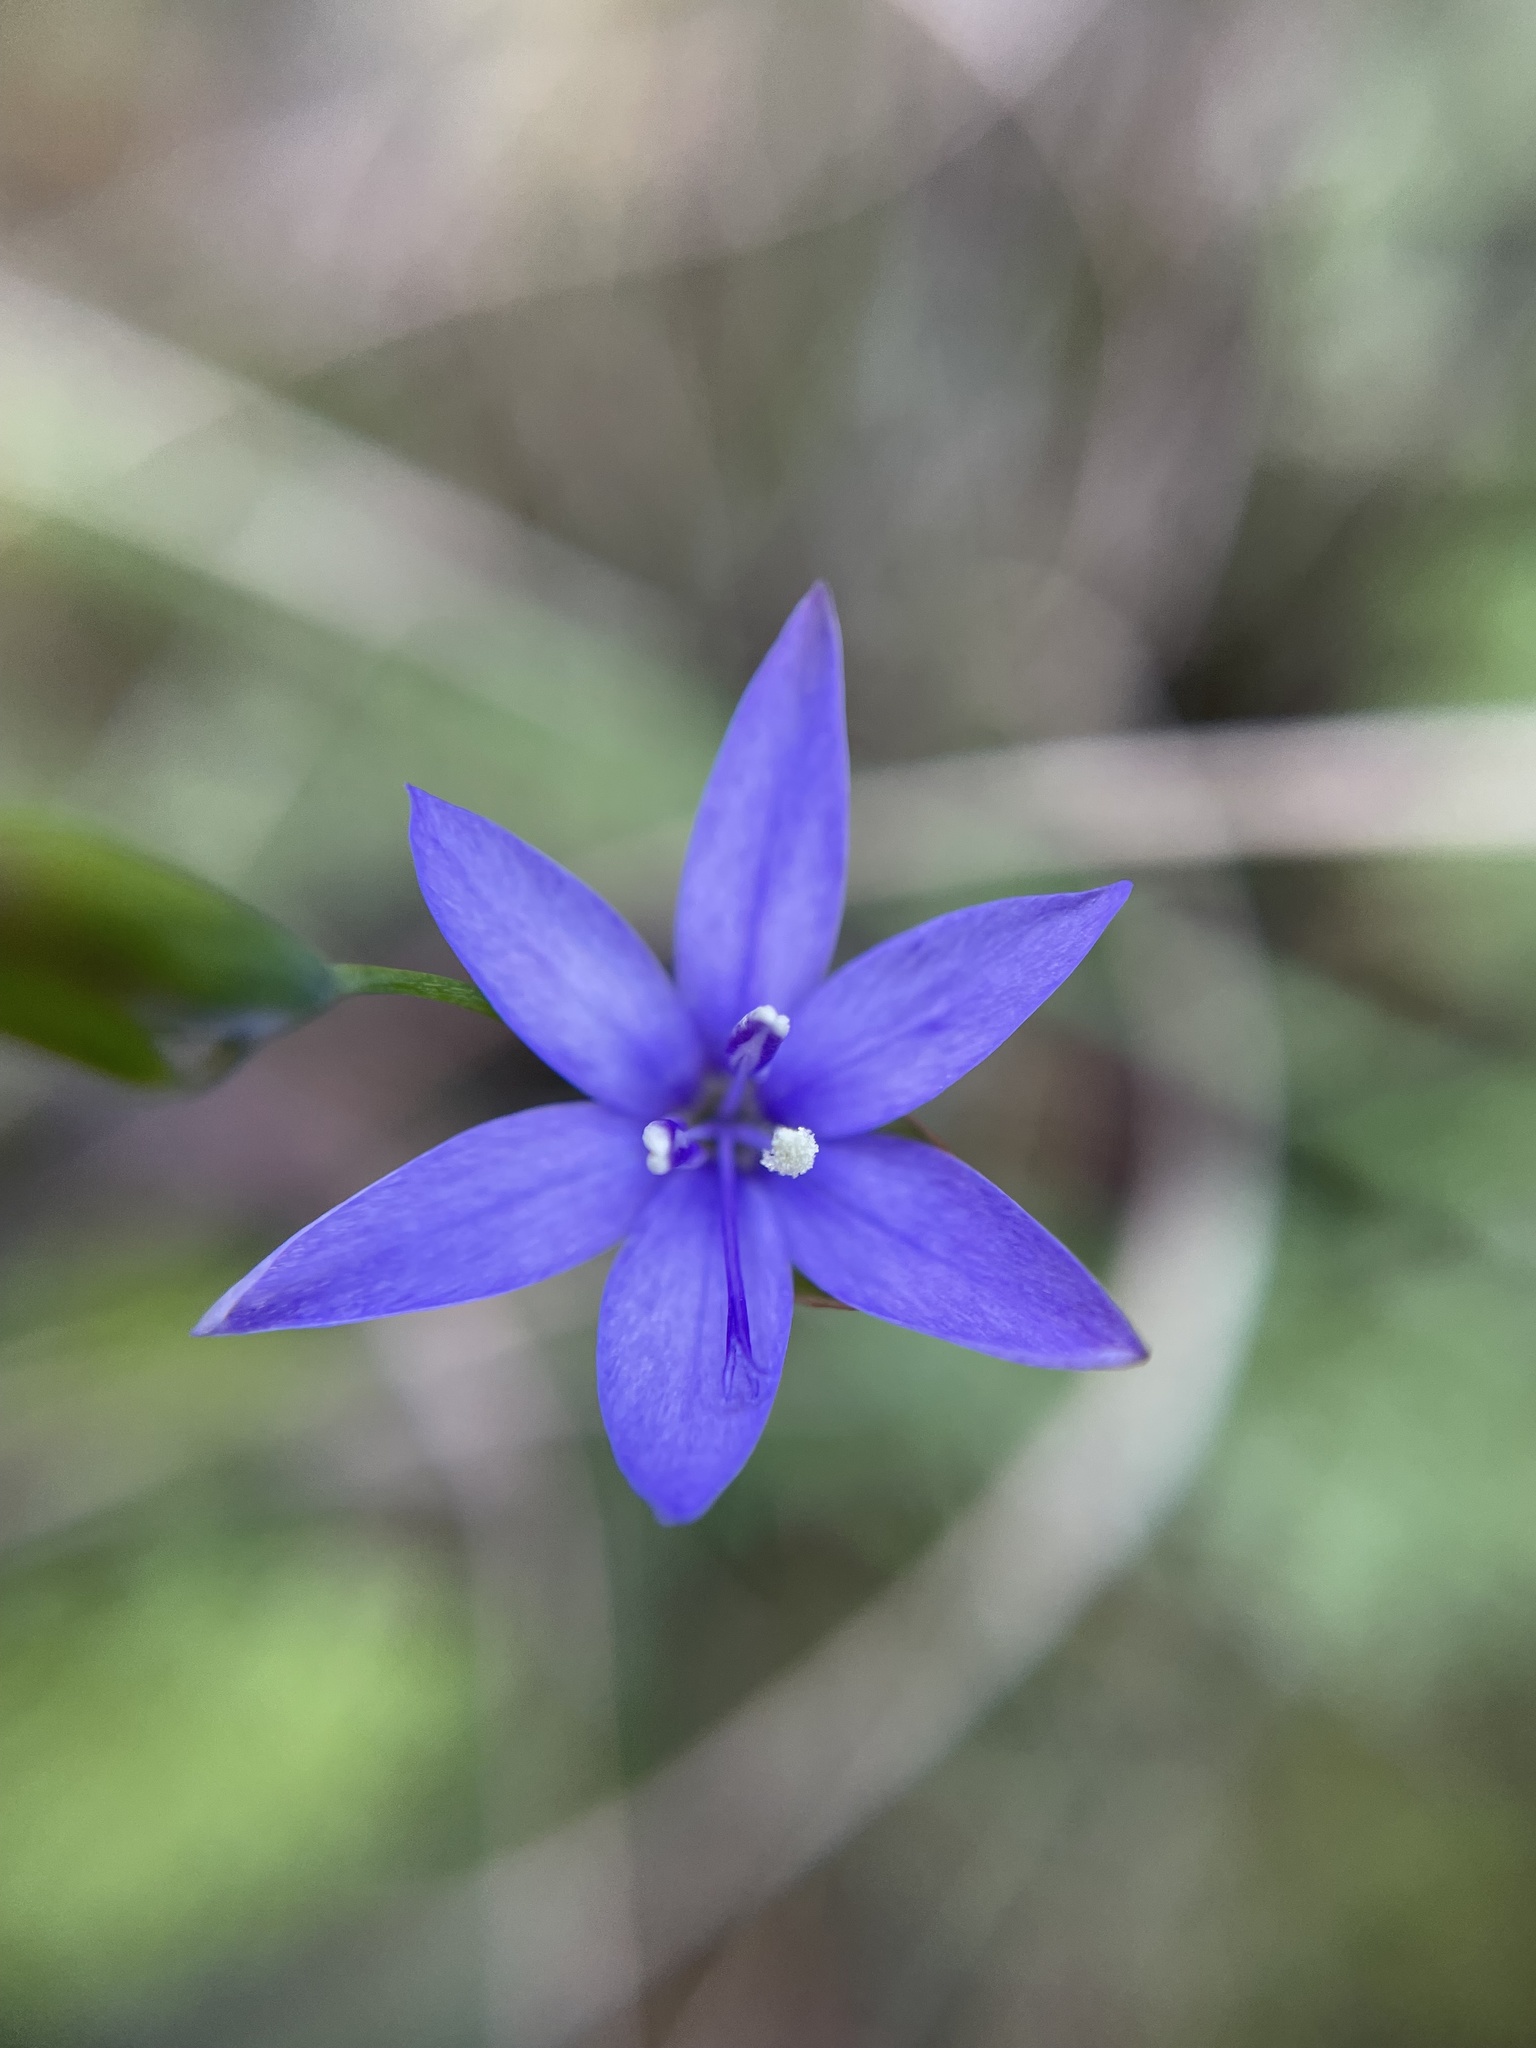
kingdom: Plantae
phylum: Tracheophyta
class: Liliopsida
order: Asparagales
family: Iridaceae
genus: Geissorhiza
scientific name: Geissorhiza aspera
